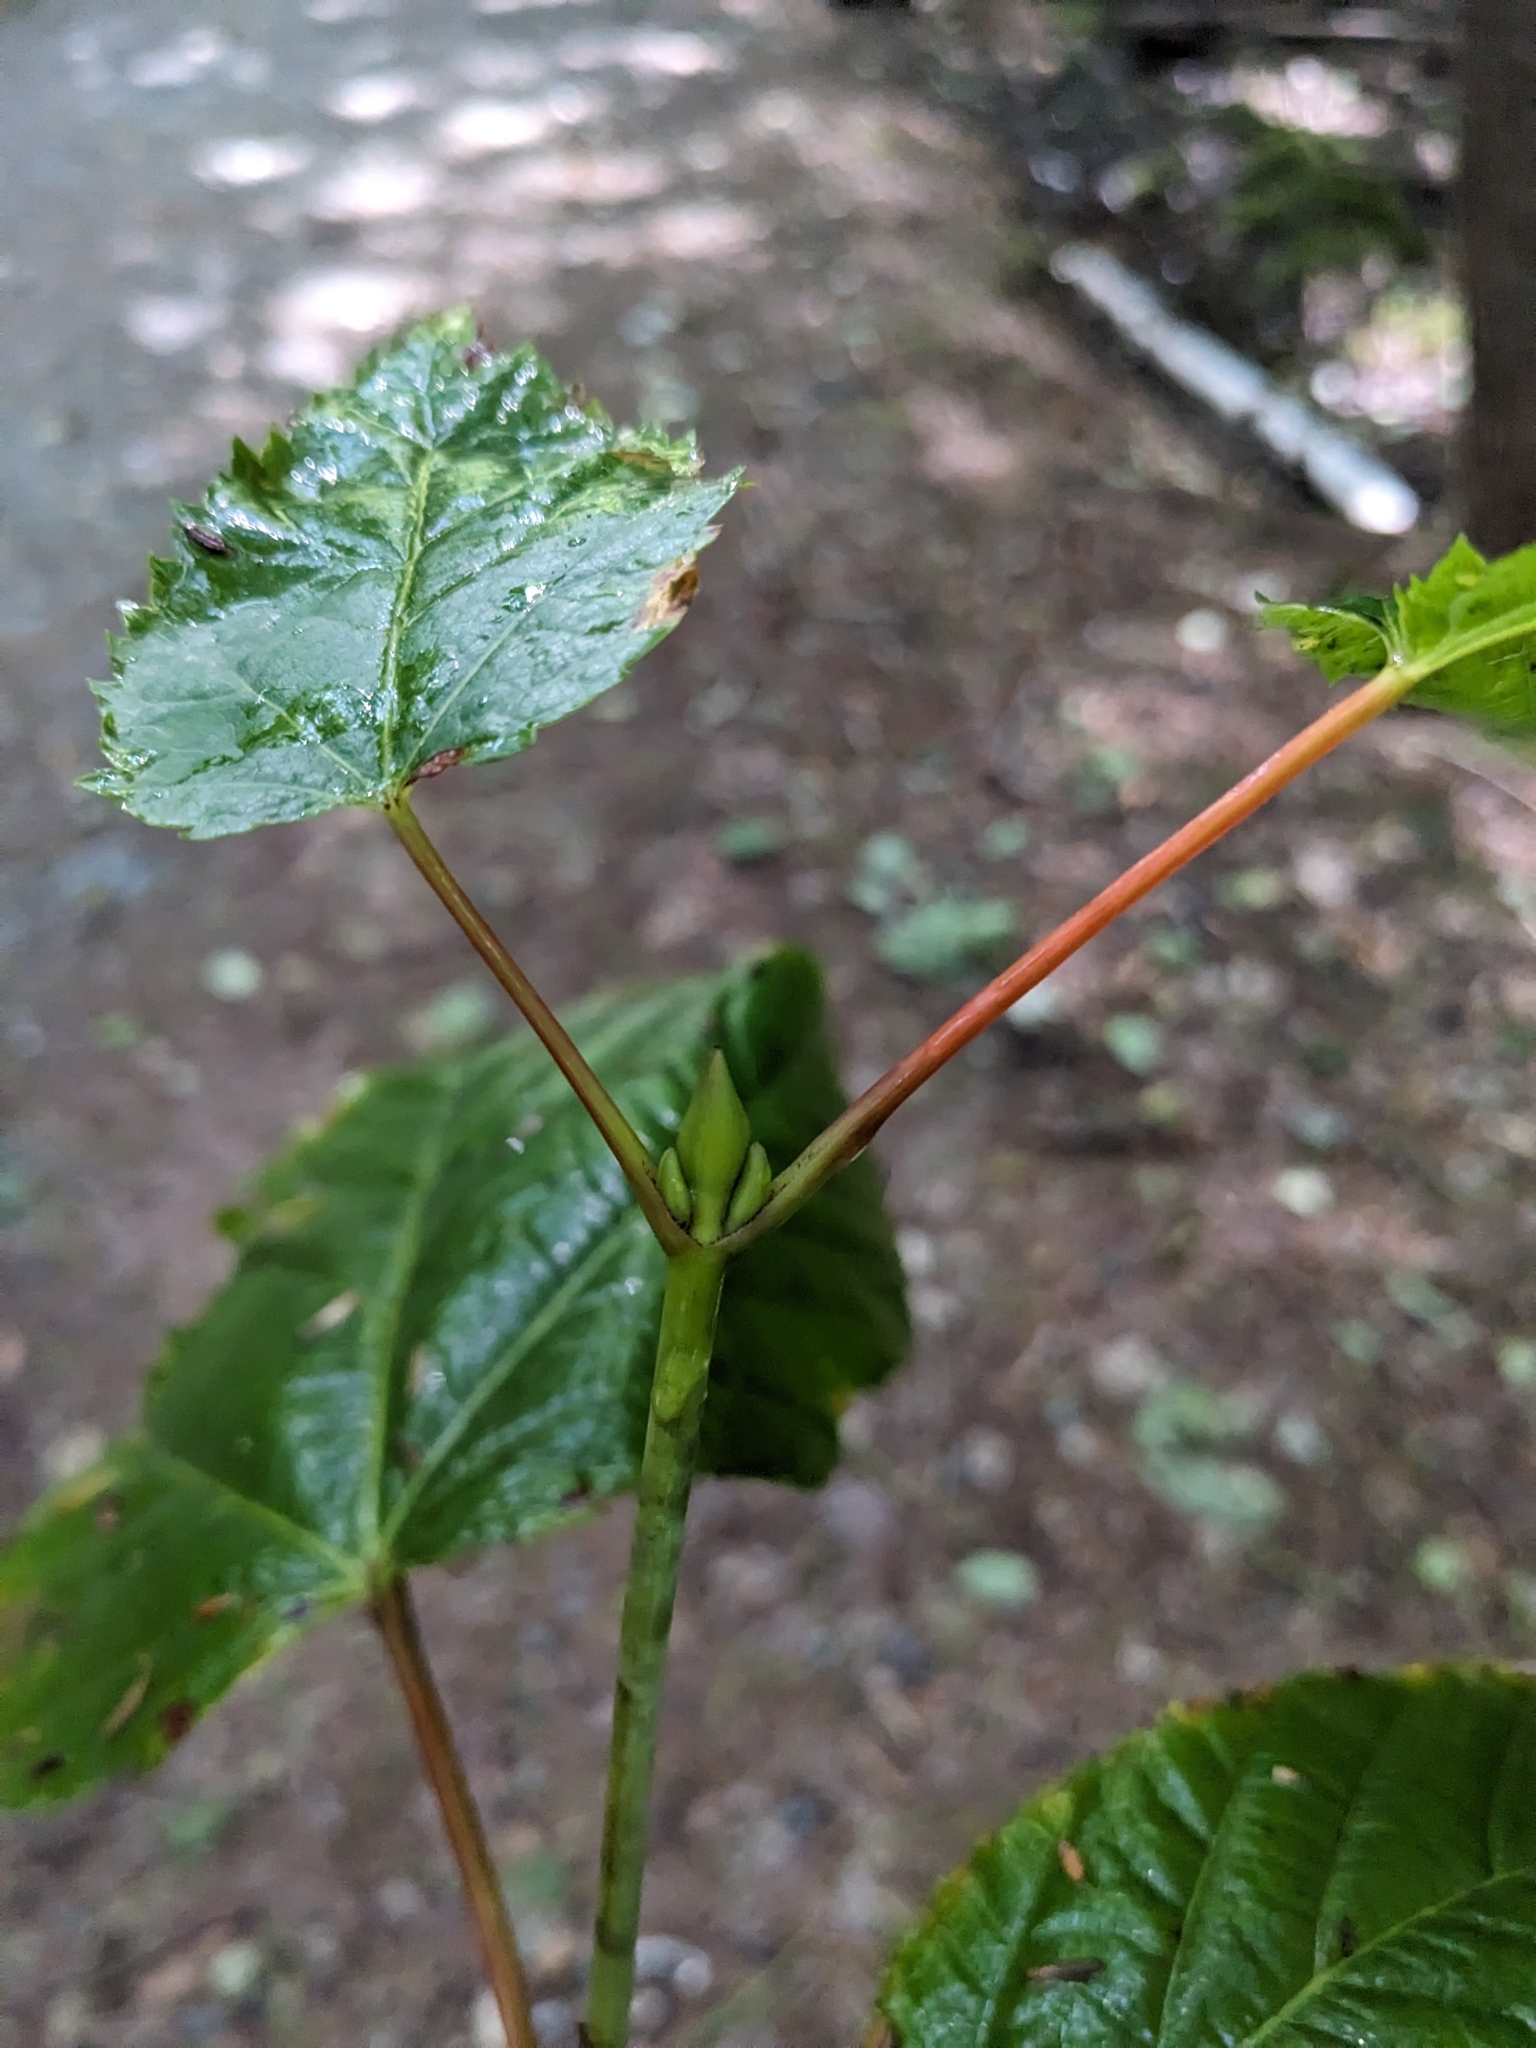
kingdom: Plantae
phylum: Tracheophyta
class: Magnoliopsida
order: Sapindales
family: Sapindaceae
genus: Acer
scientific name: Acer pensylvanicum
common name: Moosewood
